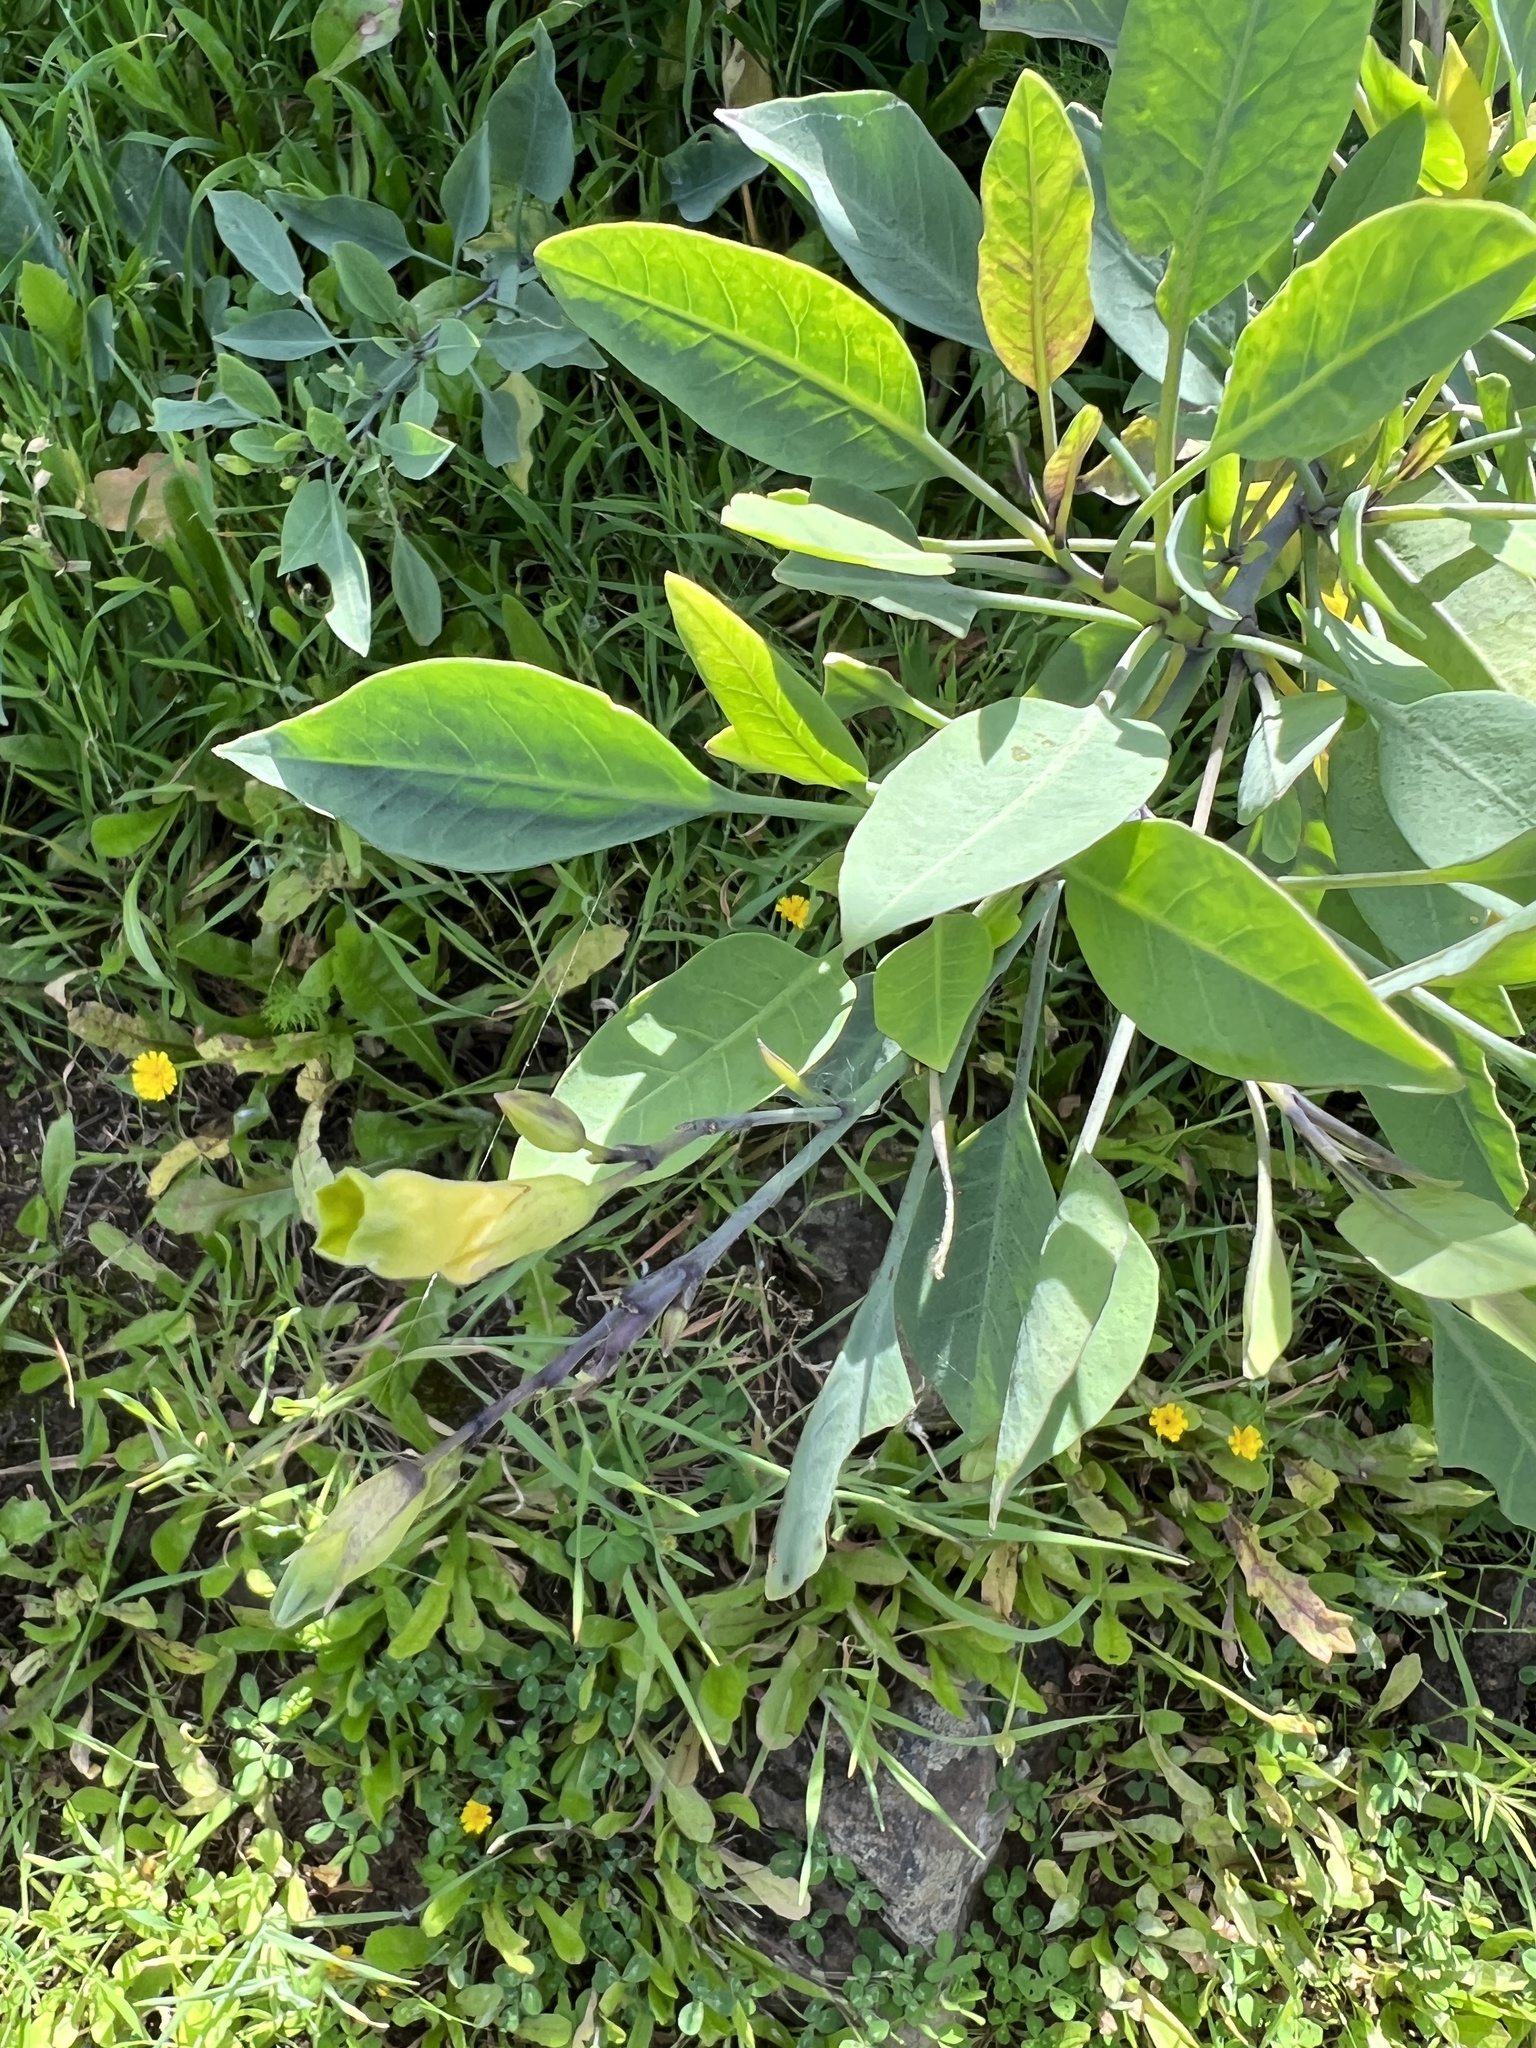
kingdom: Plantae
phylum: Tracheophyta
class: Magnoliopsida
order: Solanales
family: Solanaceae
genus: Nicotiana
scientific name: Nicotiana glauca
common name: Tree tobacco
